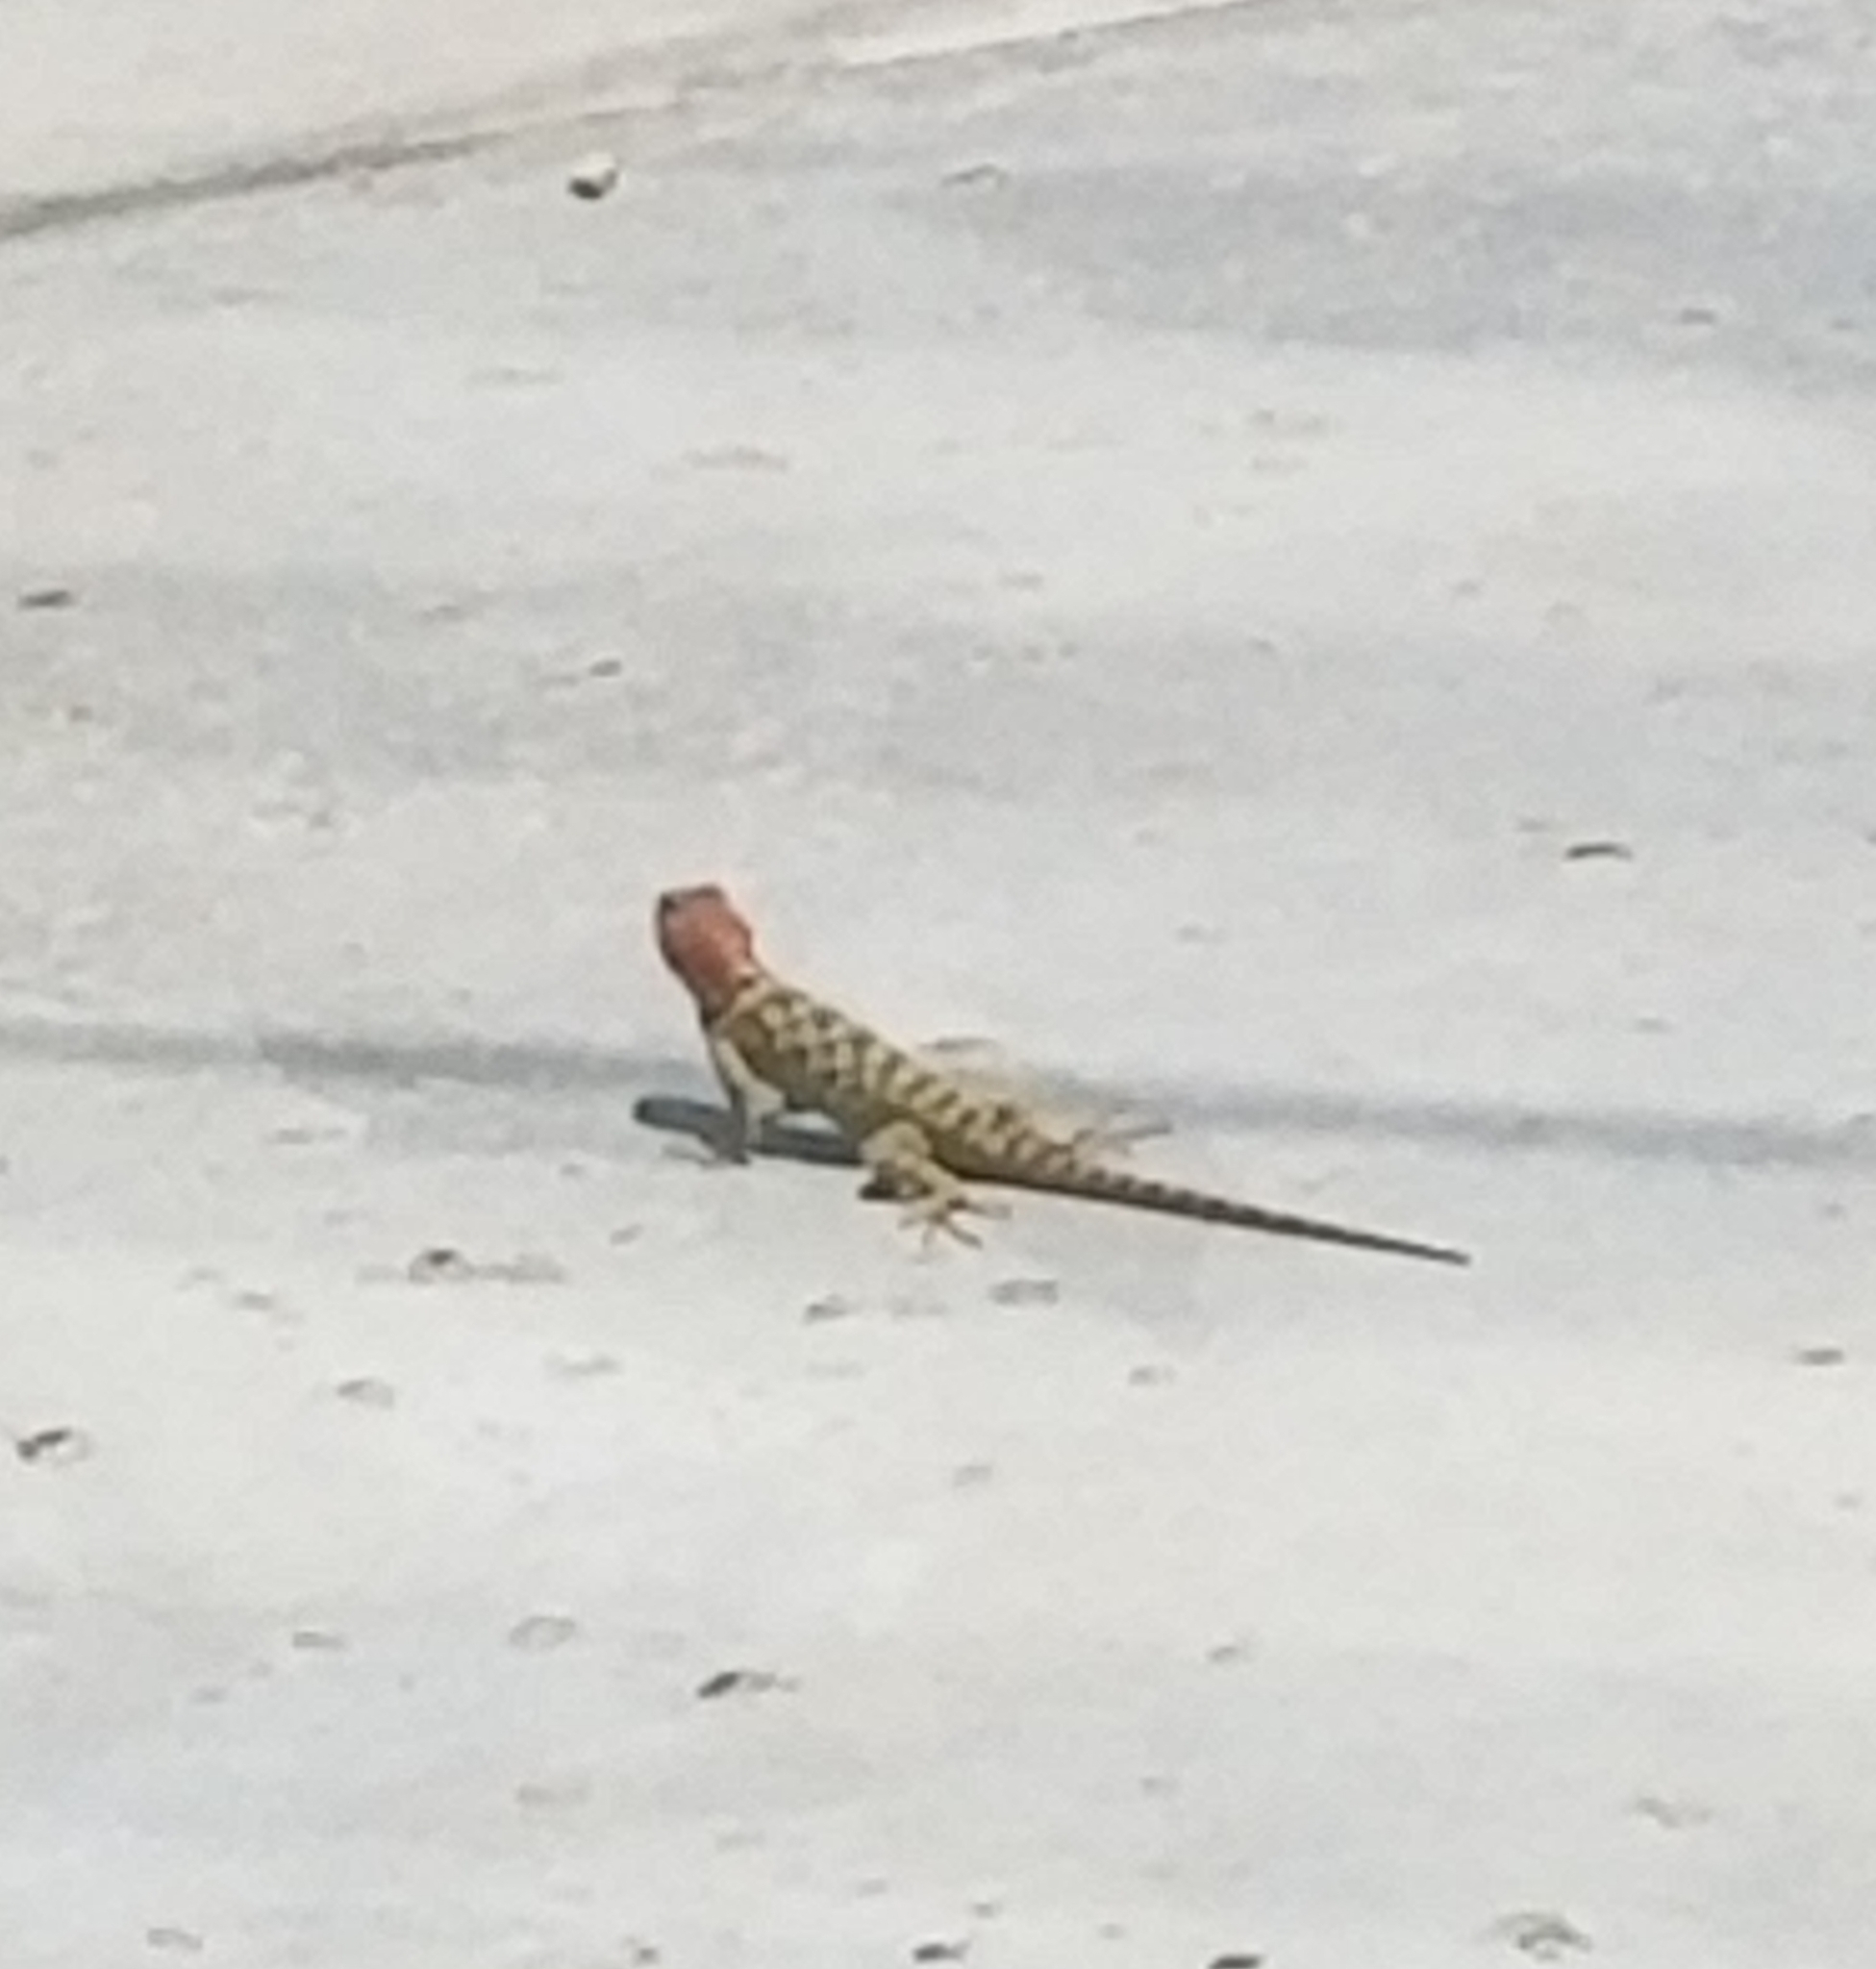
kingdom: Animalia
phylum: Chordata
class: Squamata
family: Phrynosomatidae
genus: Sceloporus
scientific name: Sceloporus magister
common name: Desert spiny lizard
